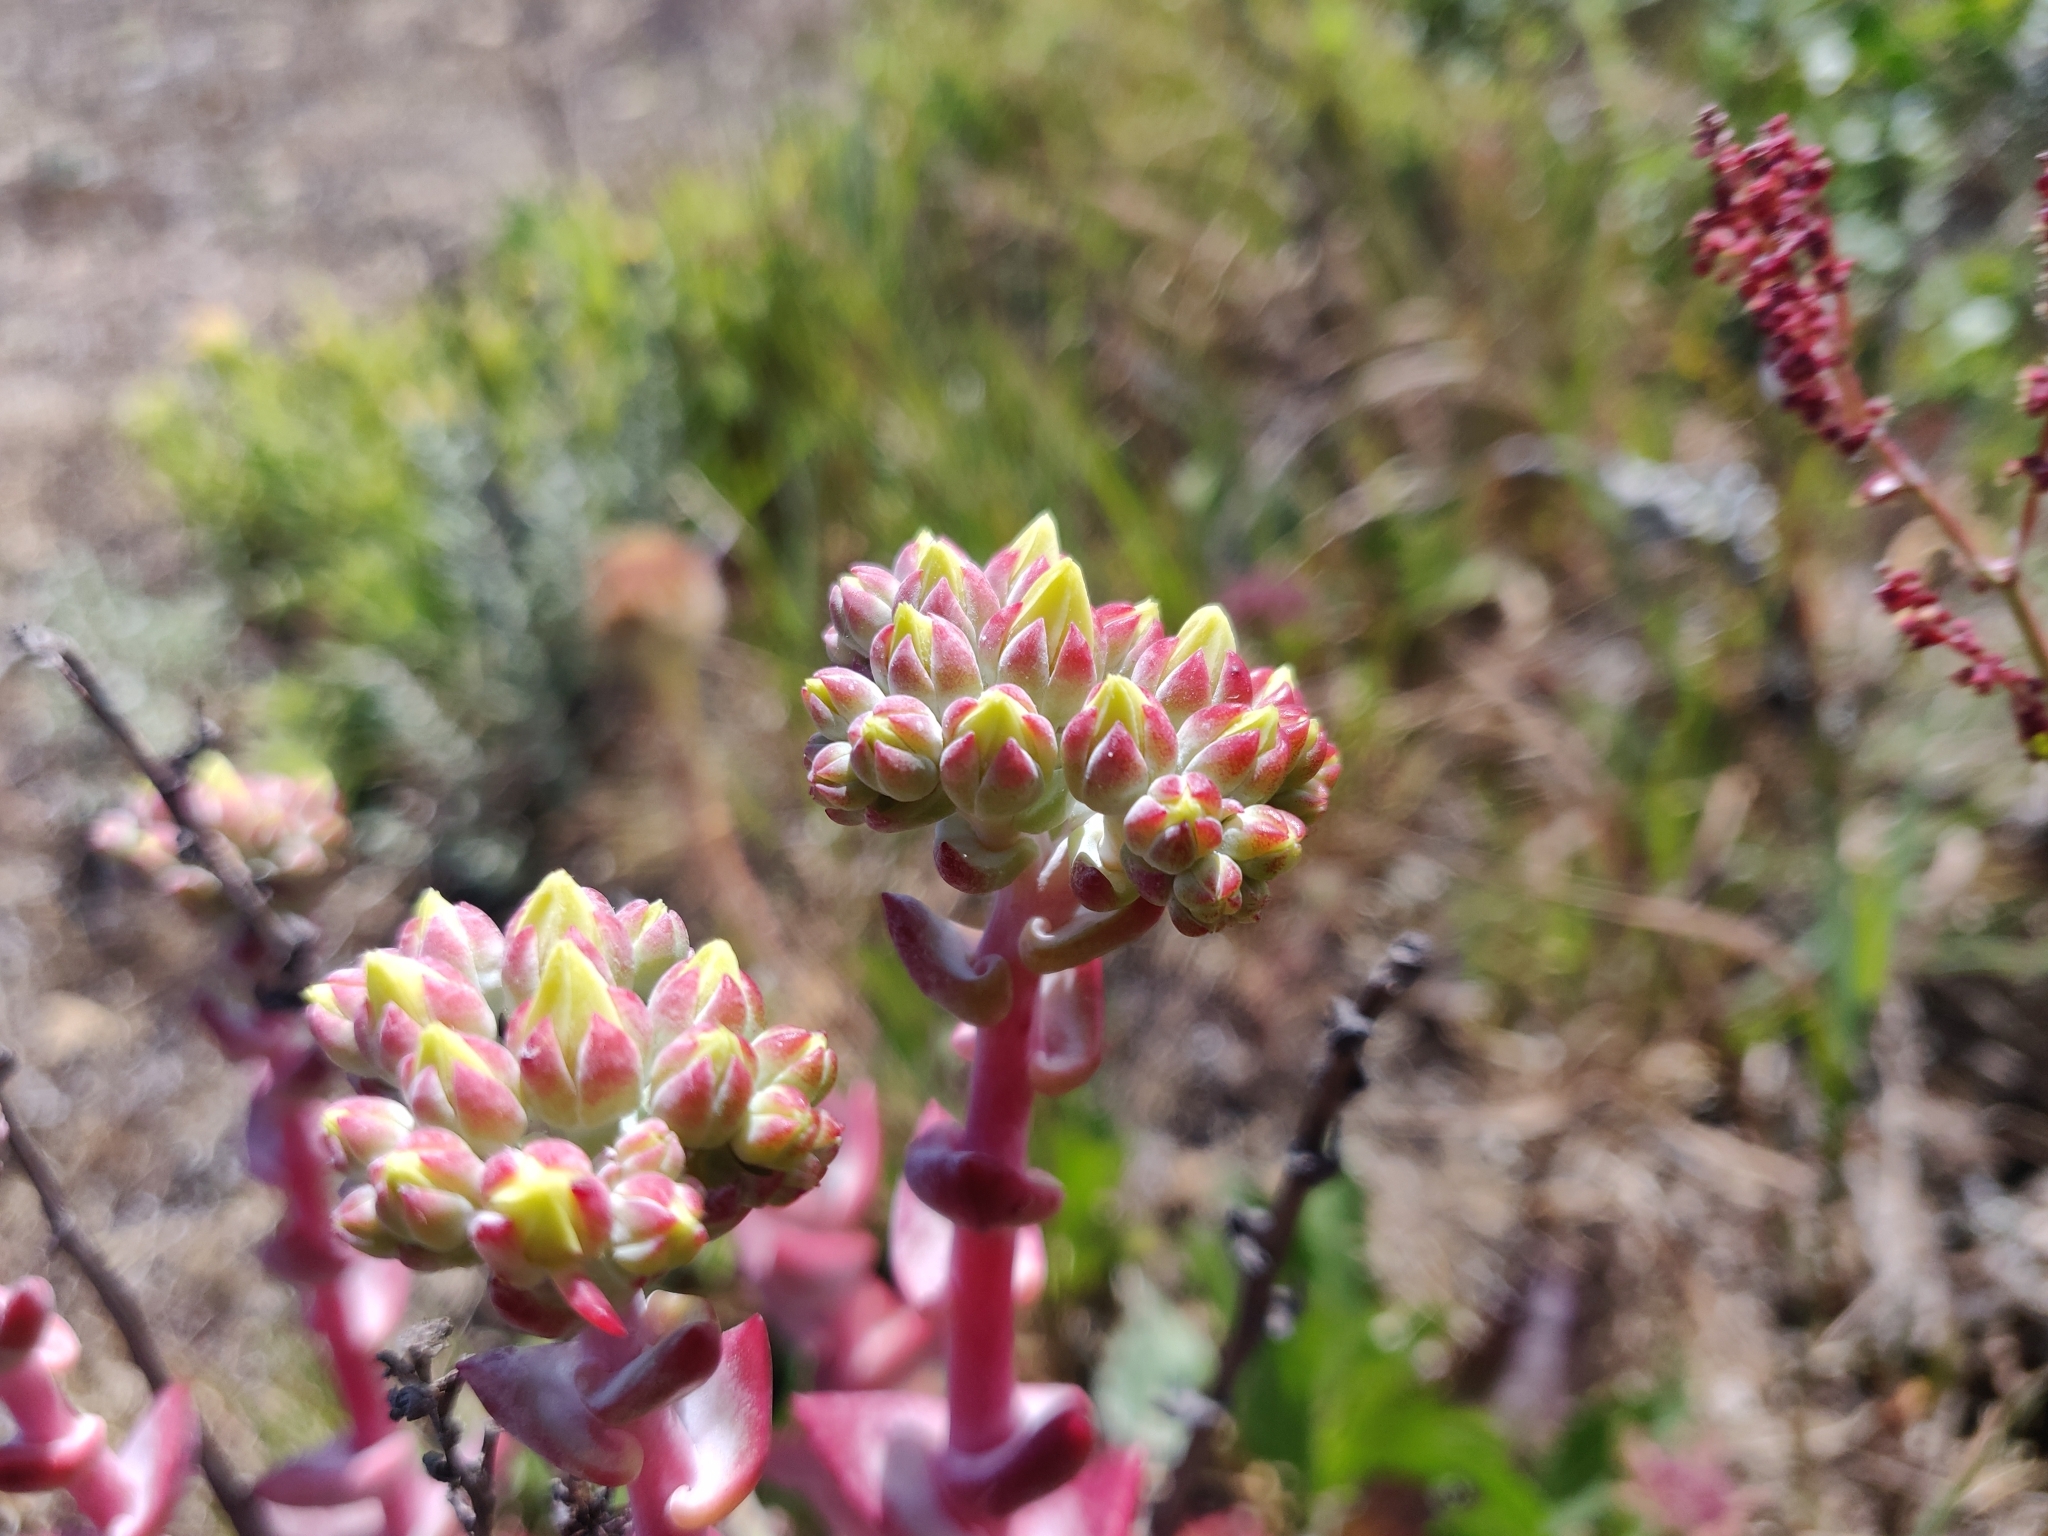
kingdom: Plantae
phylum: Tracheophyta
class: Magnoliopsida
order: Saxifragales
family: Crassulaceae
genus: Dudleya
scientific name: Dudleya farinosa
